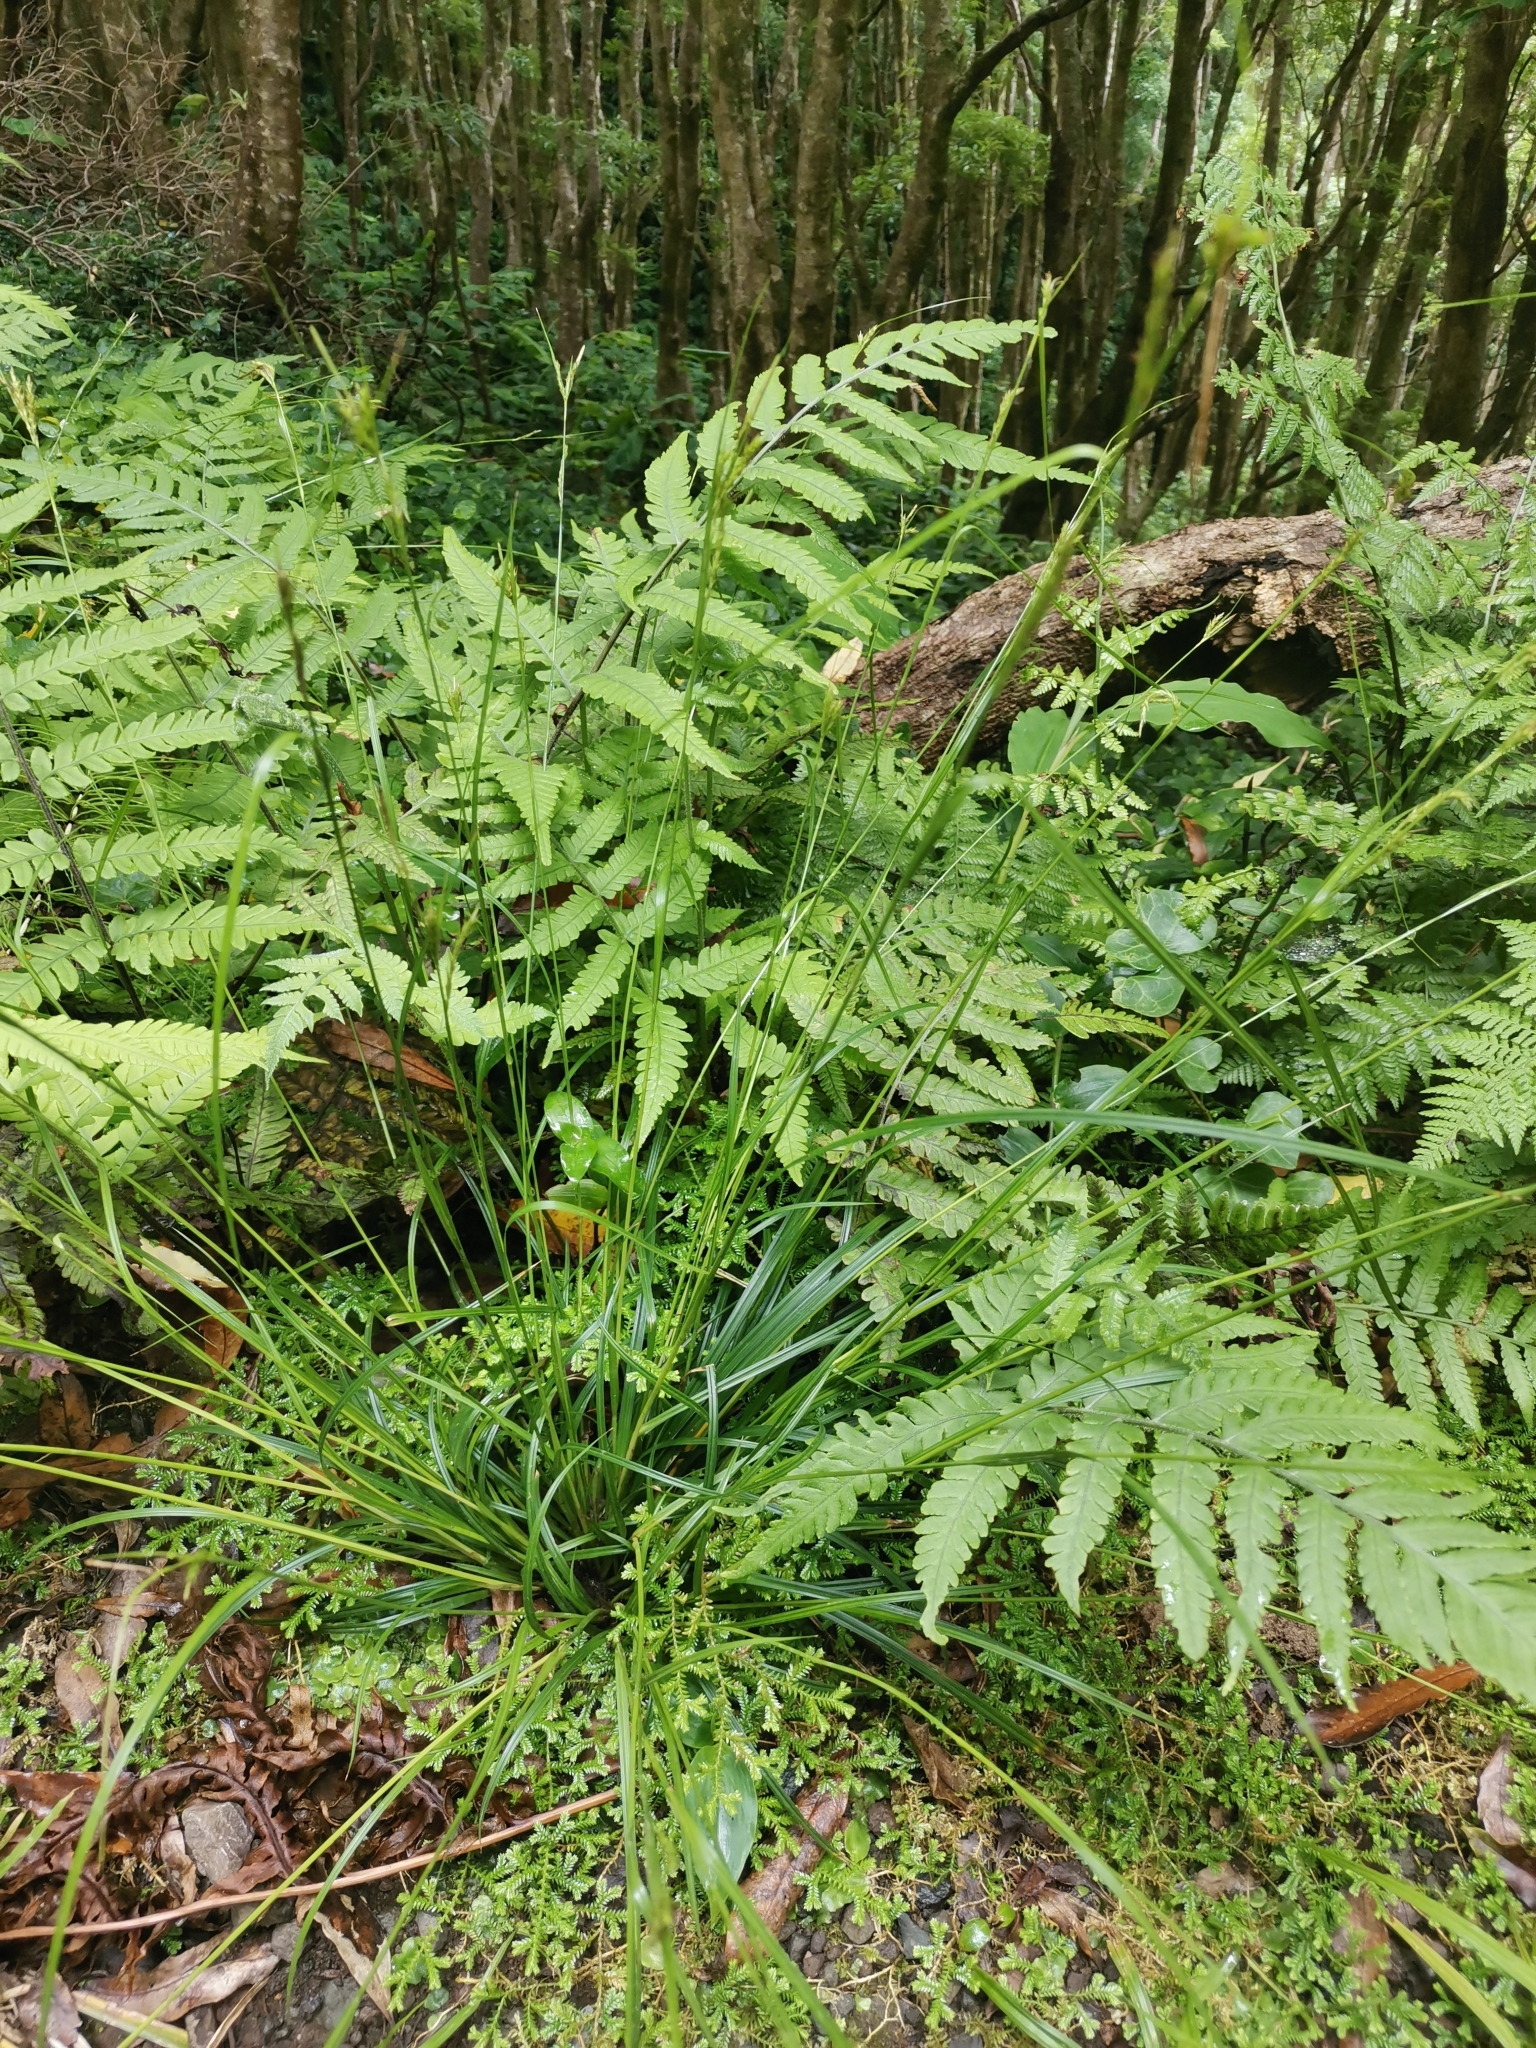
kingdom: Plantae
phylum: Tracheophyta
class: Liliopsida
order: Poales
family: Cyperaceae
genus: Carex
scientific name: Carex vulcani
